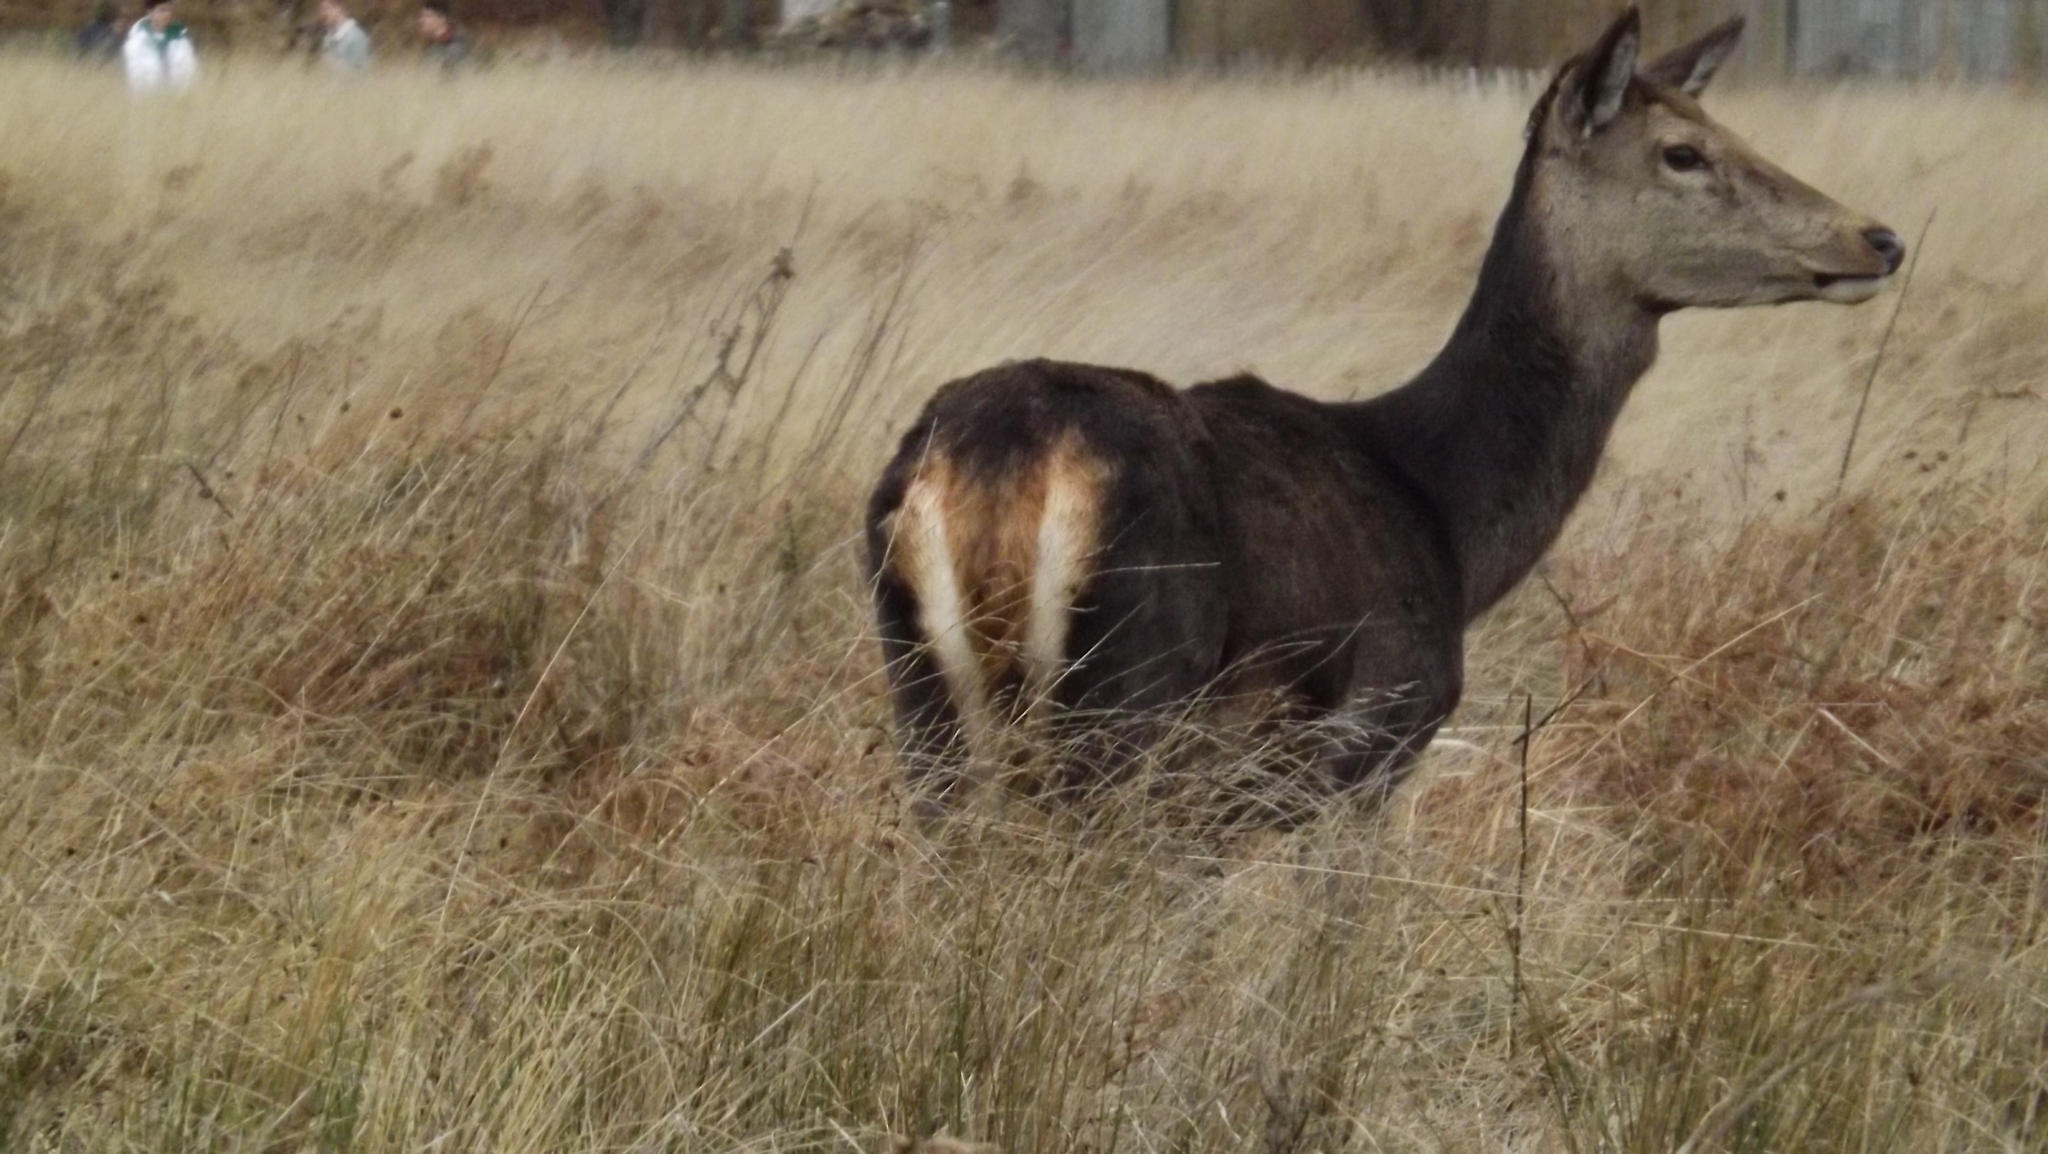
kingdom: Animalia
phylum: Chordata
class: Mammalia
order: Artiodactyla
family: Cervidae
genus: Cervus
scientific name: Cervus elaphus
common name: Red deer
